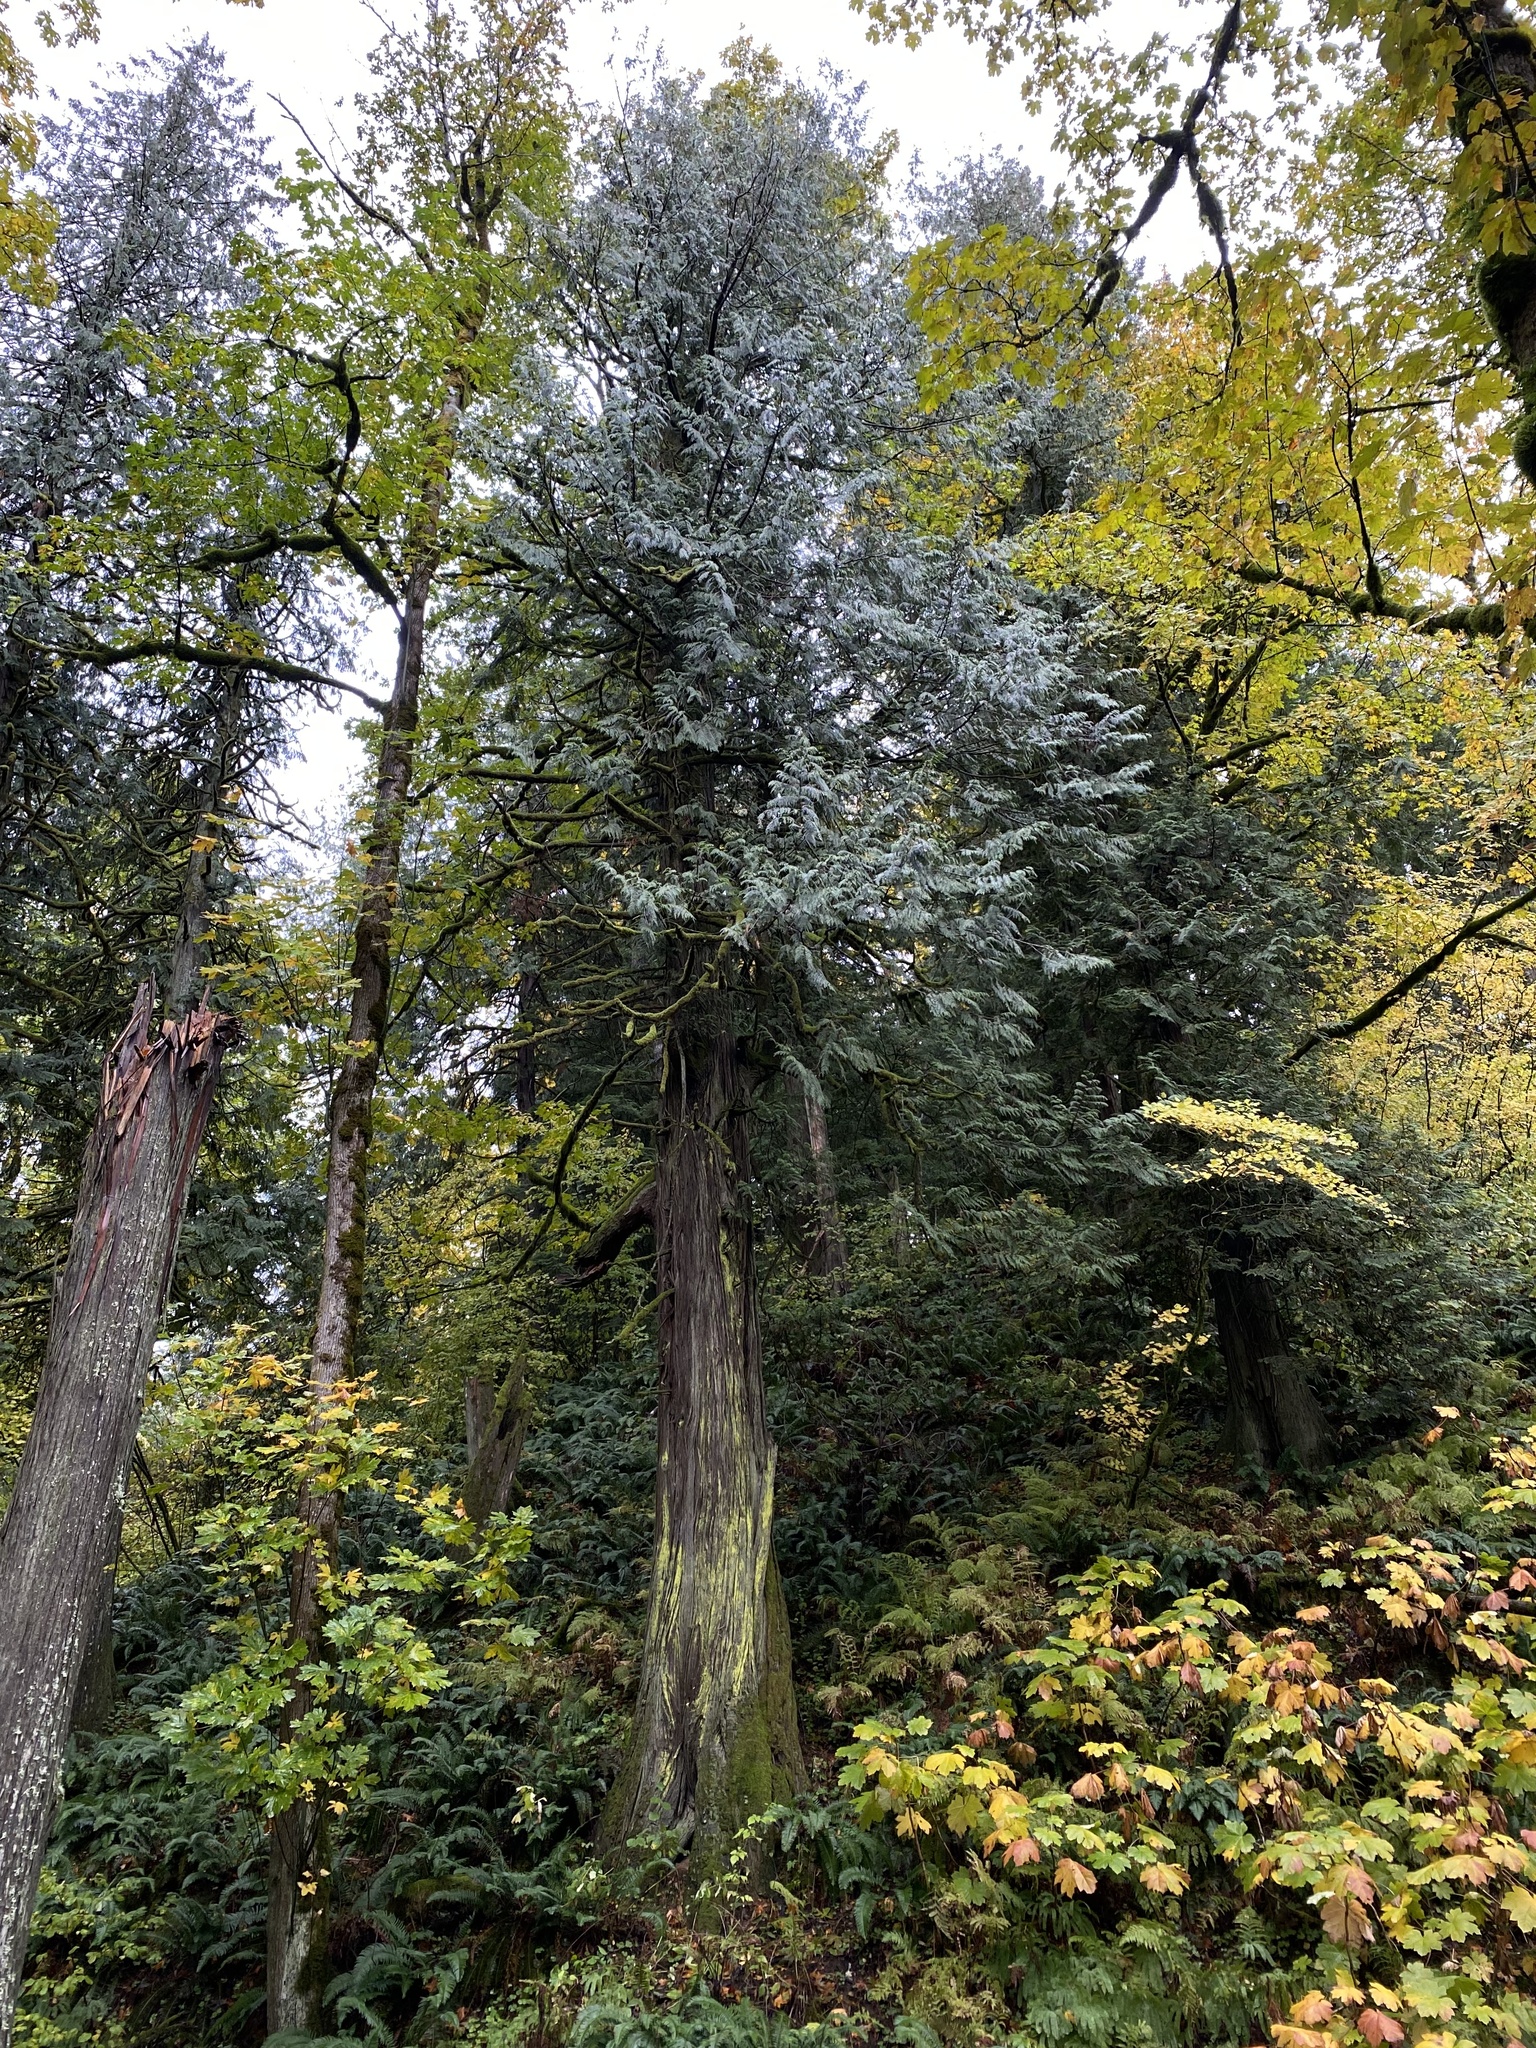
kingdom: Plantae
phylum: Tracheophyta
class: Pinopsida
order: Pinales
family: Cupressaceae
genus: Thuja
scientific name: Thuja plicata
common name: Western red-cedar
